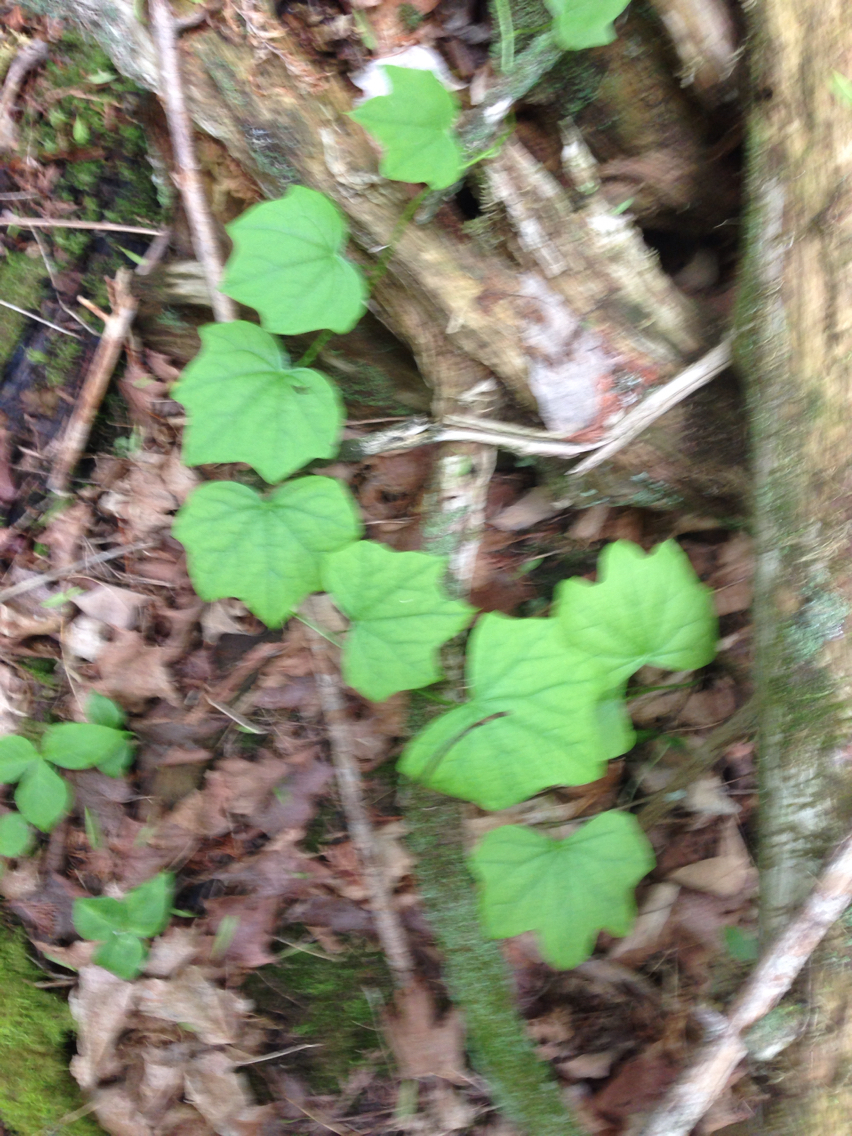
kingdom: Plantae
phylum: Tracheophyta
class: Magnoliopsida
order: Ranunculales
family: Menispermaceae
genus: Menispermum
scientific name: Menispermum canadense
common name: Moonseed
